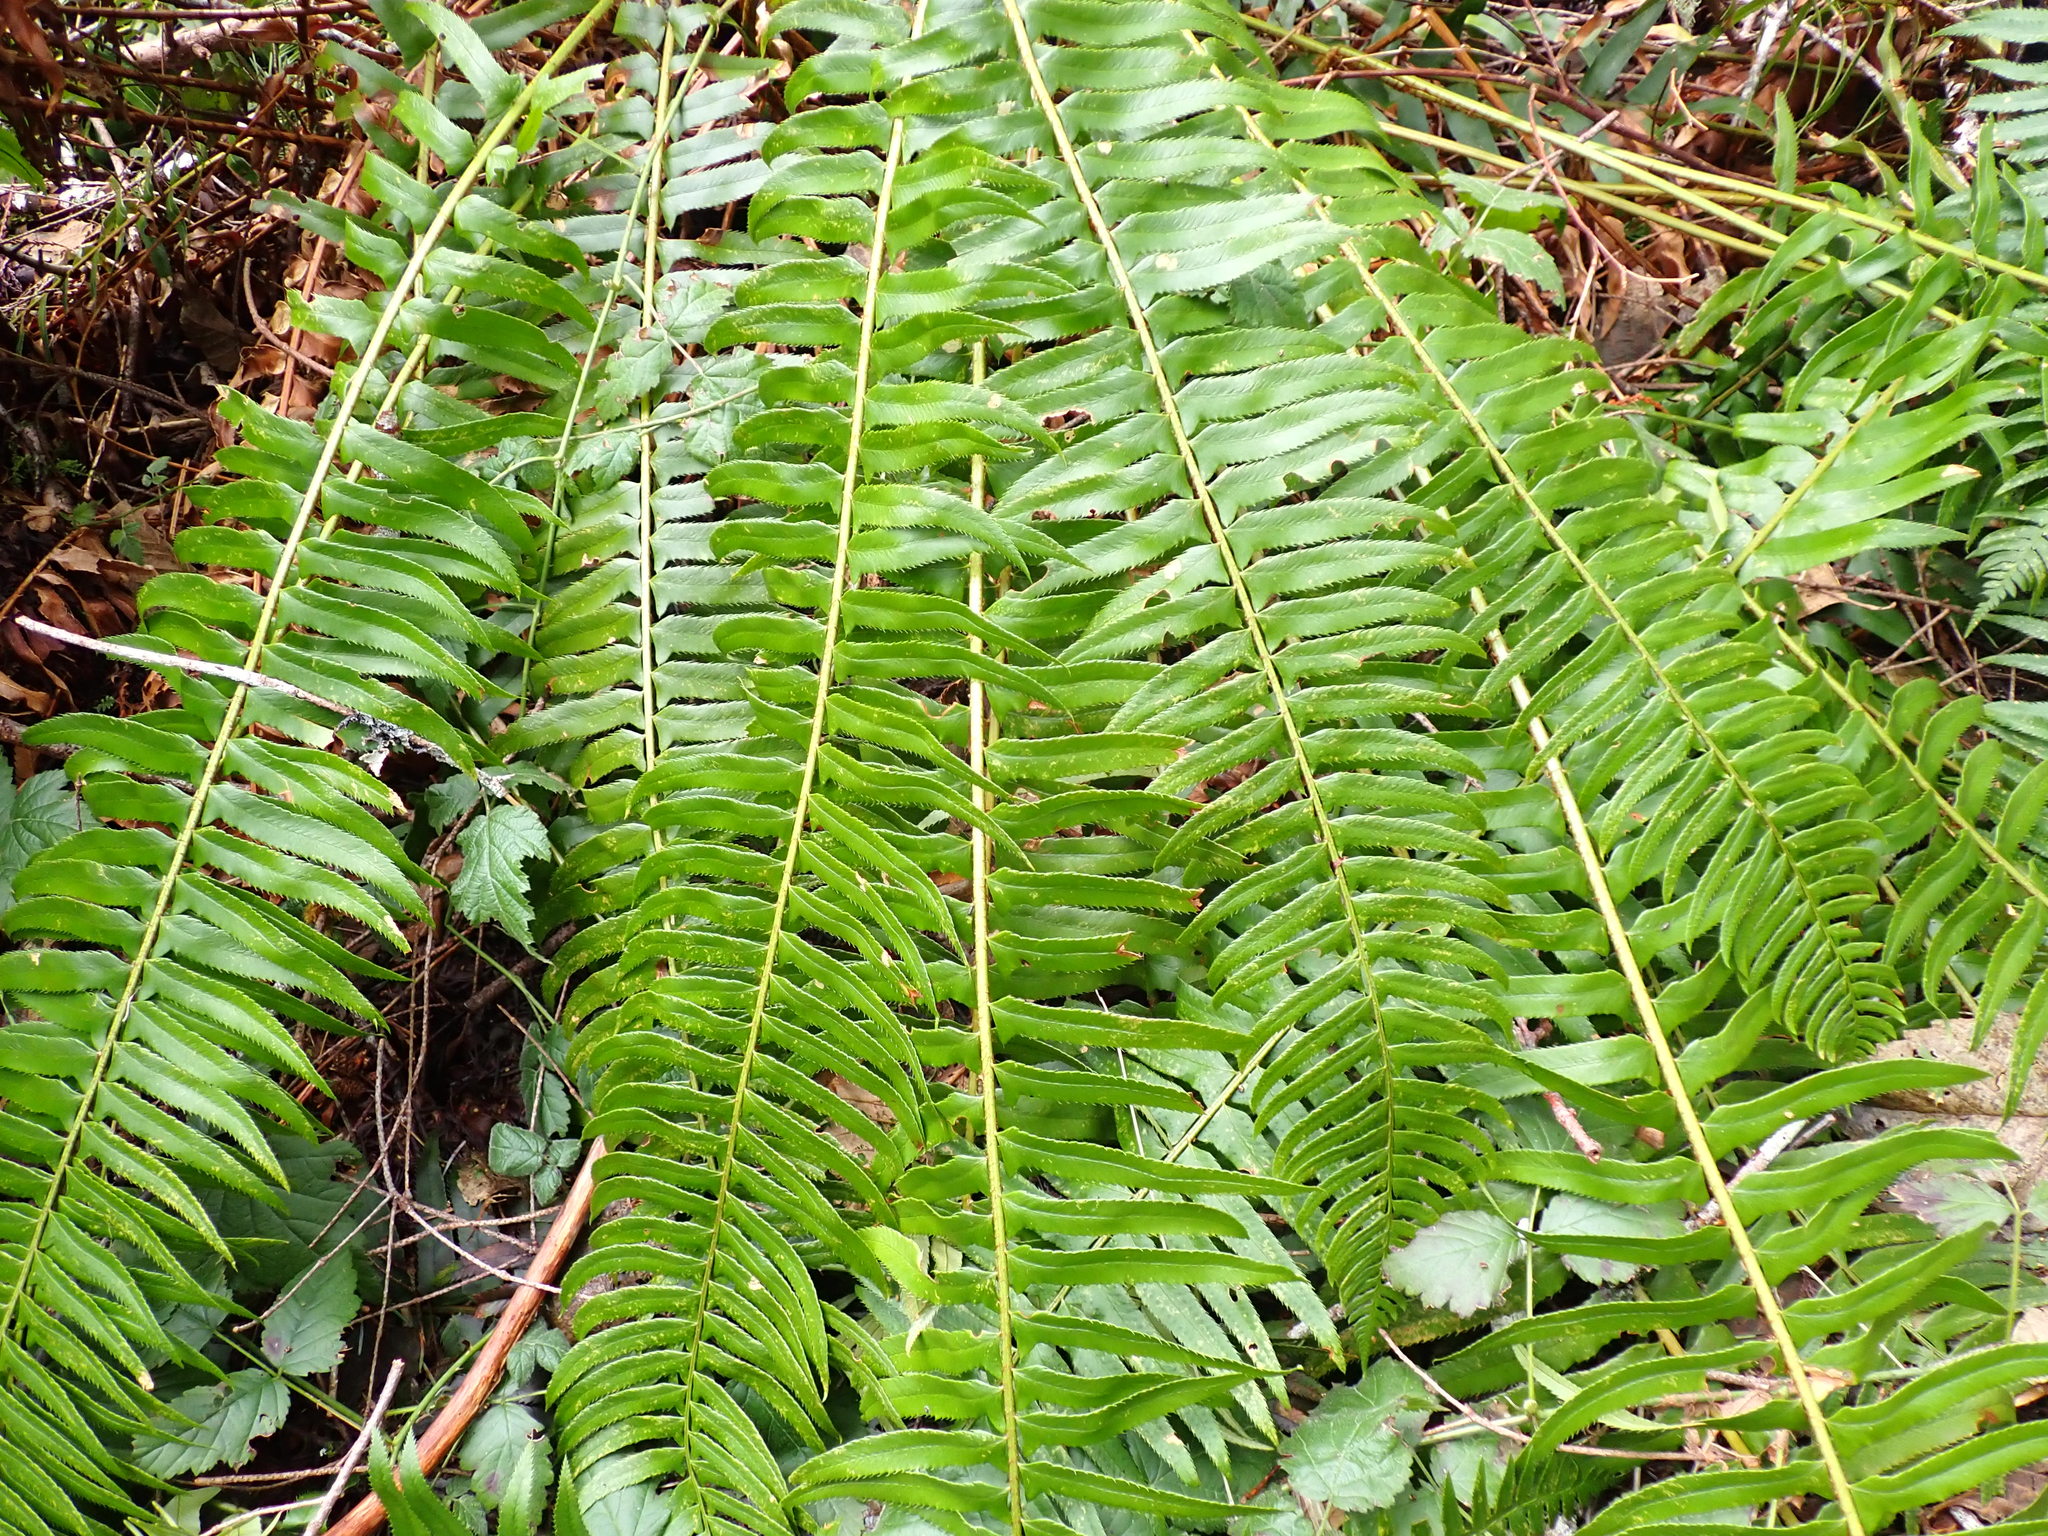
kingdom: Plantae
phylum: Tracheophyta
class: Polypodiopsida
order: Polypodiales
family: Dryopteridaceae
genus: Polystichum
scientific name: Polystichum munitum
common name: Western sword-fern
